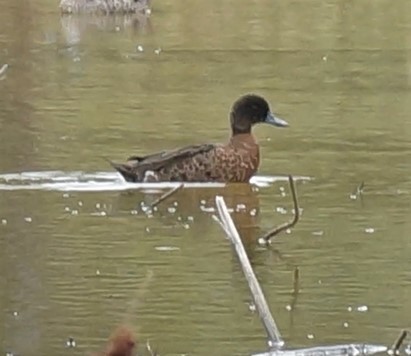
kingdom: Animalia
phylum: Chordata
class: Aves
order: Anseriformes
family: Anatidae
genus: Anas
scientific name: Anas castanea
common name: Chestnut teal
